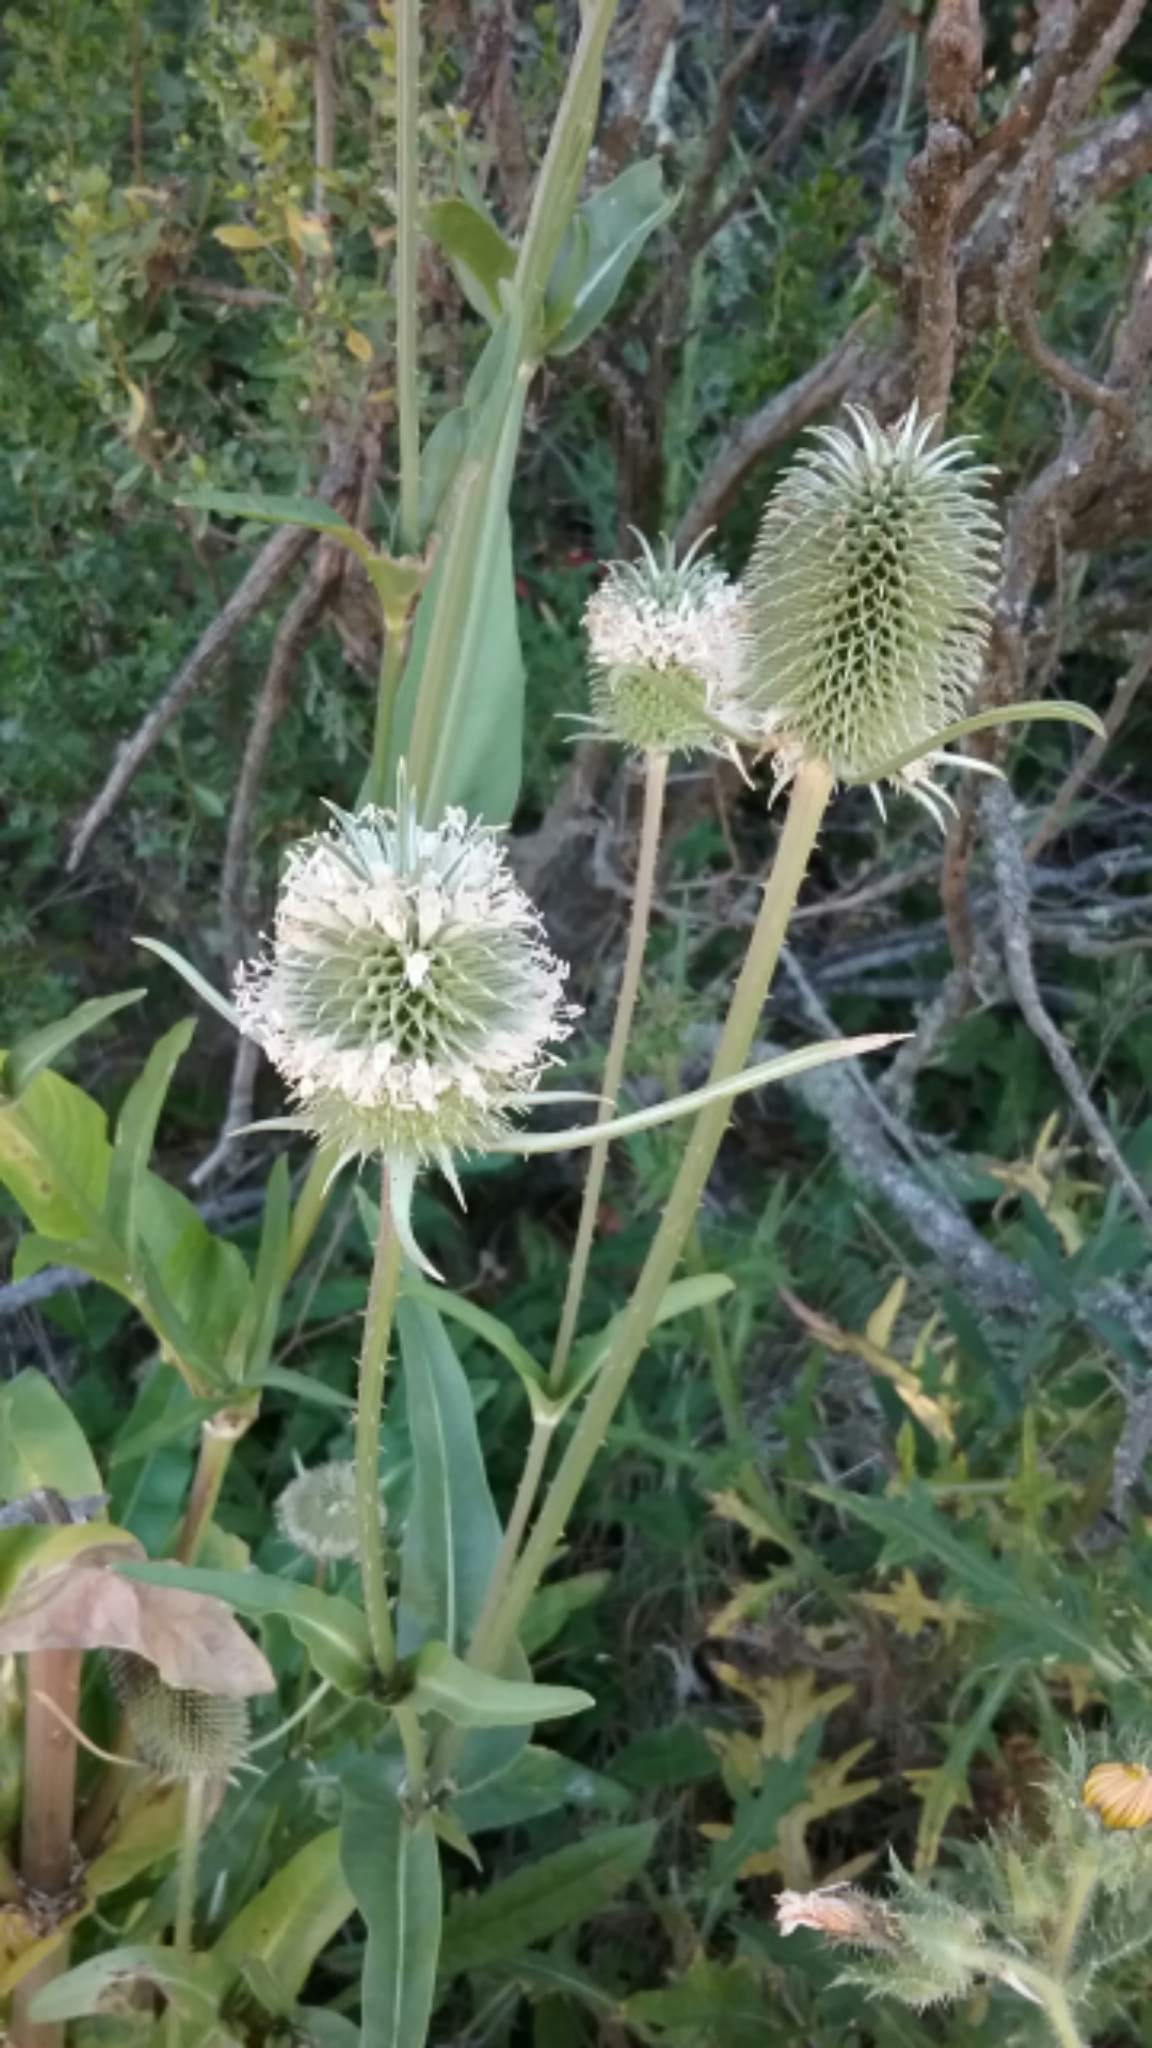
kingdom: Plantae
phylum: Tracheophyta
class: Magnoliopsida
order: Dipsacales
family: Caprifoliaceae
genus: Dipsacus
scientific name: Dipsacus sativus
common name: Fuller's teasel
